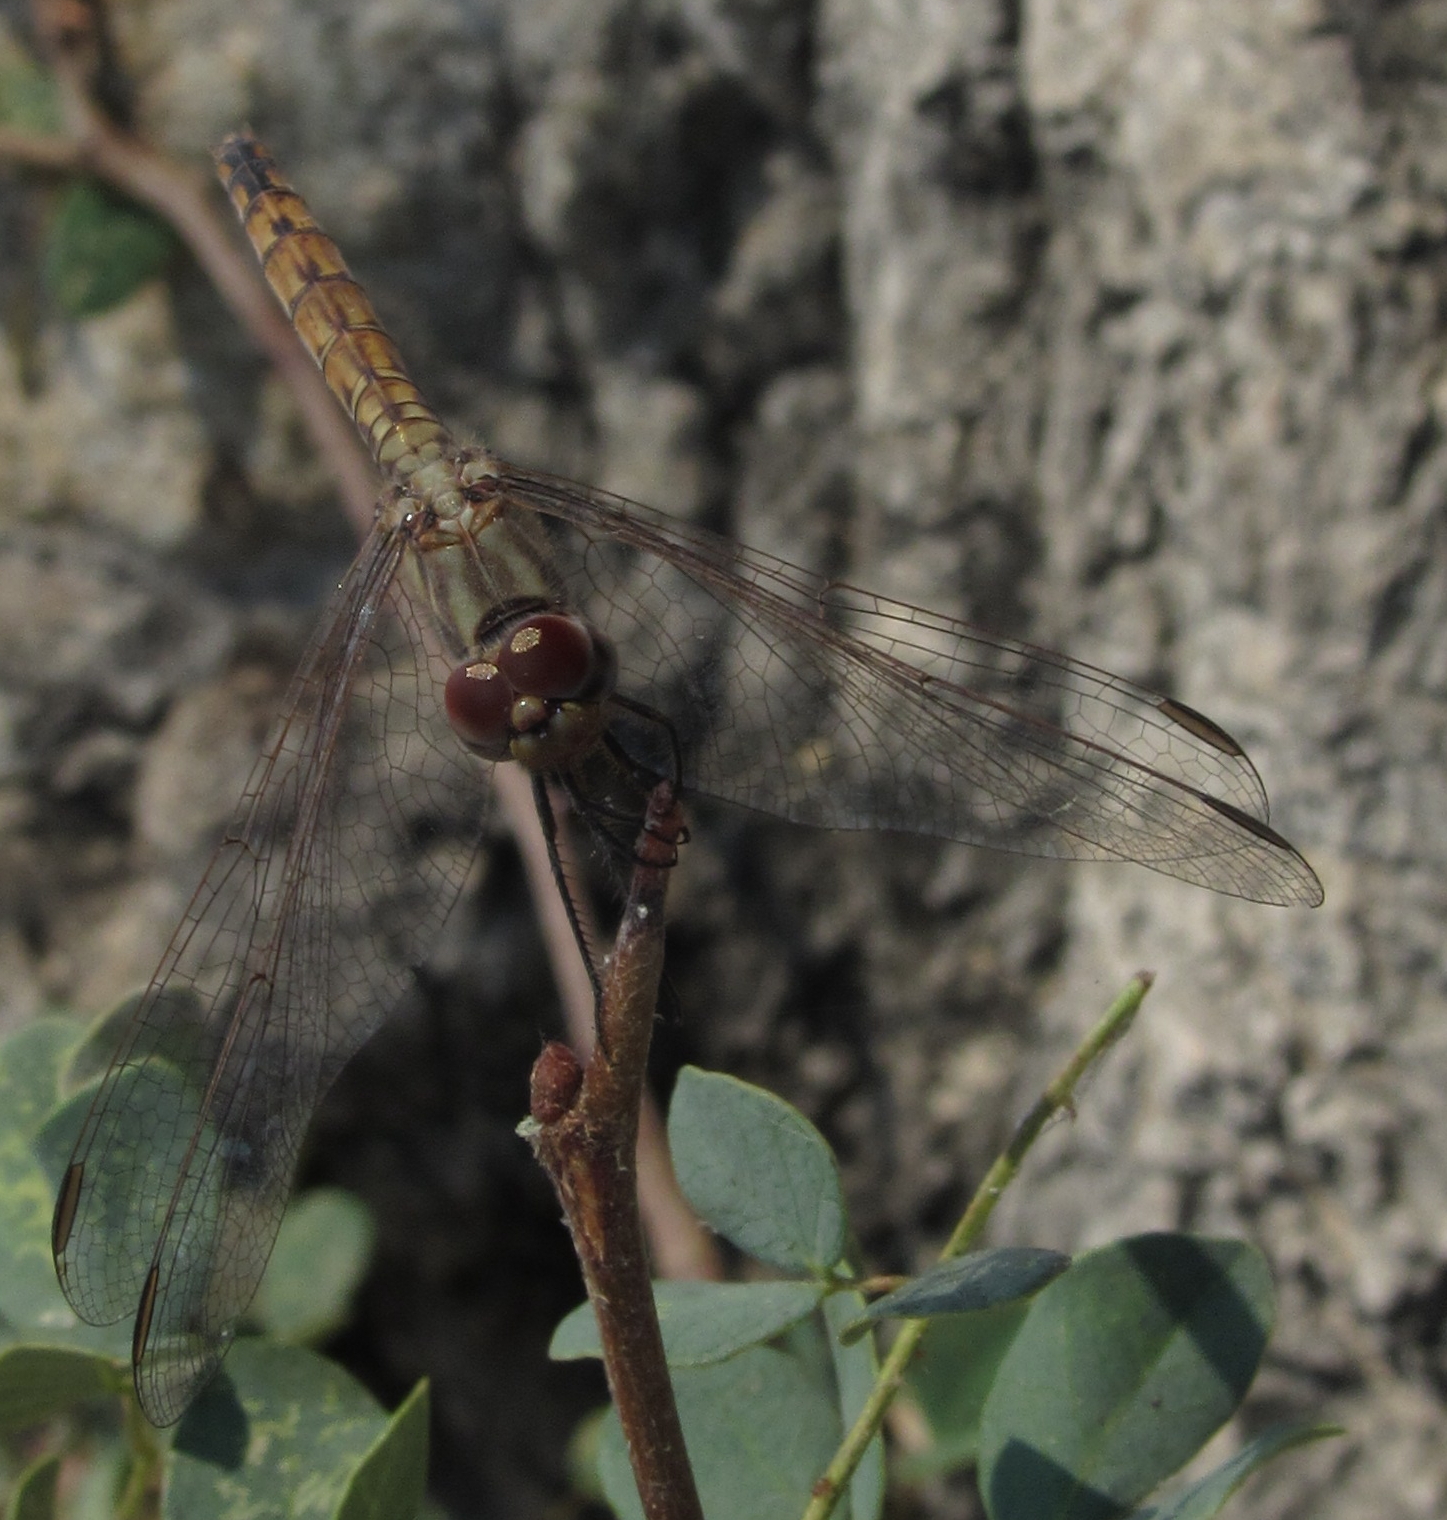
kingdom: Animalia
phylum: Arthropoda
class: Insecta
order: Odonata
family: Libellulidae
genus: Trithemis
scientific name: Trithemis annulata
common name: Violet dropwing
